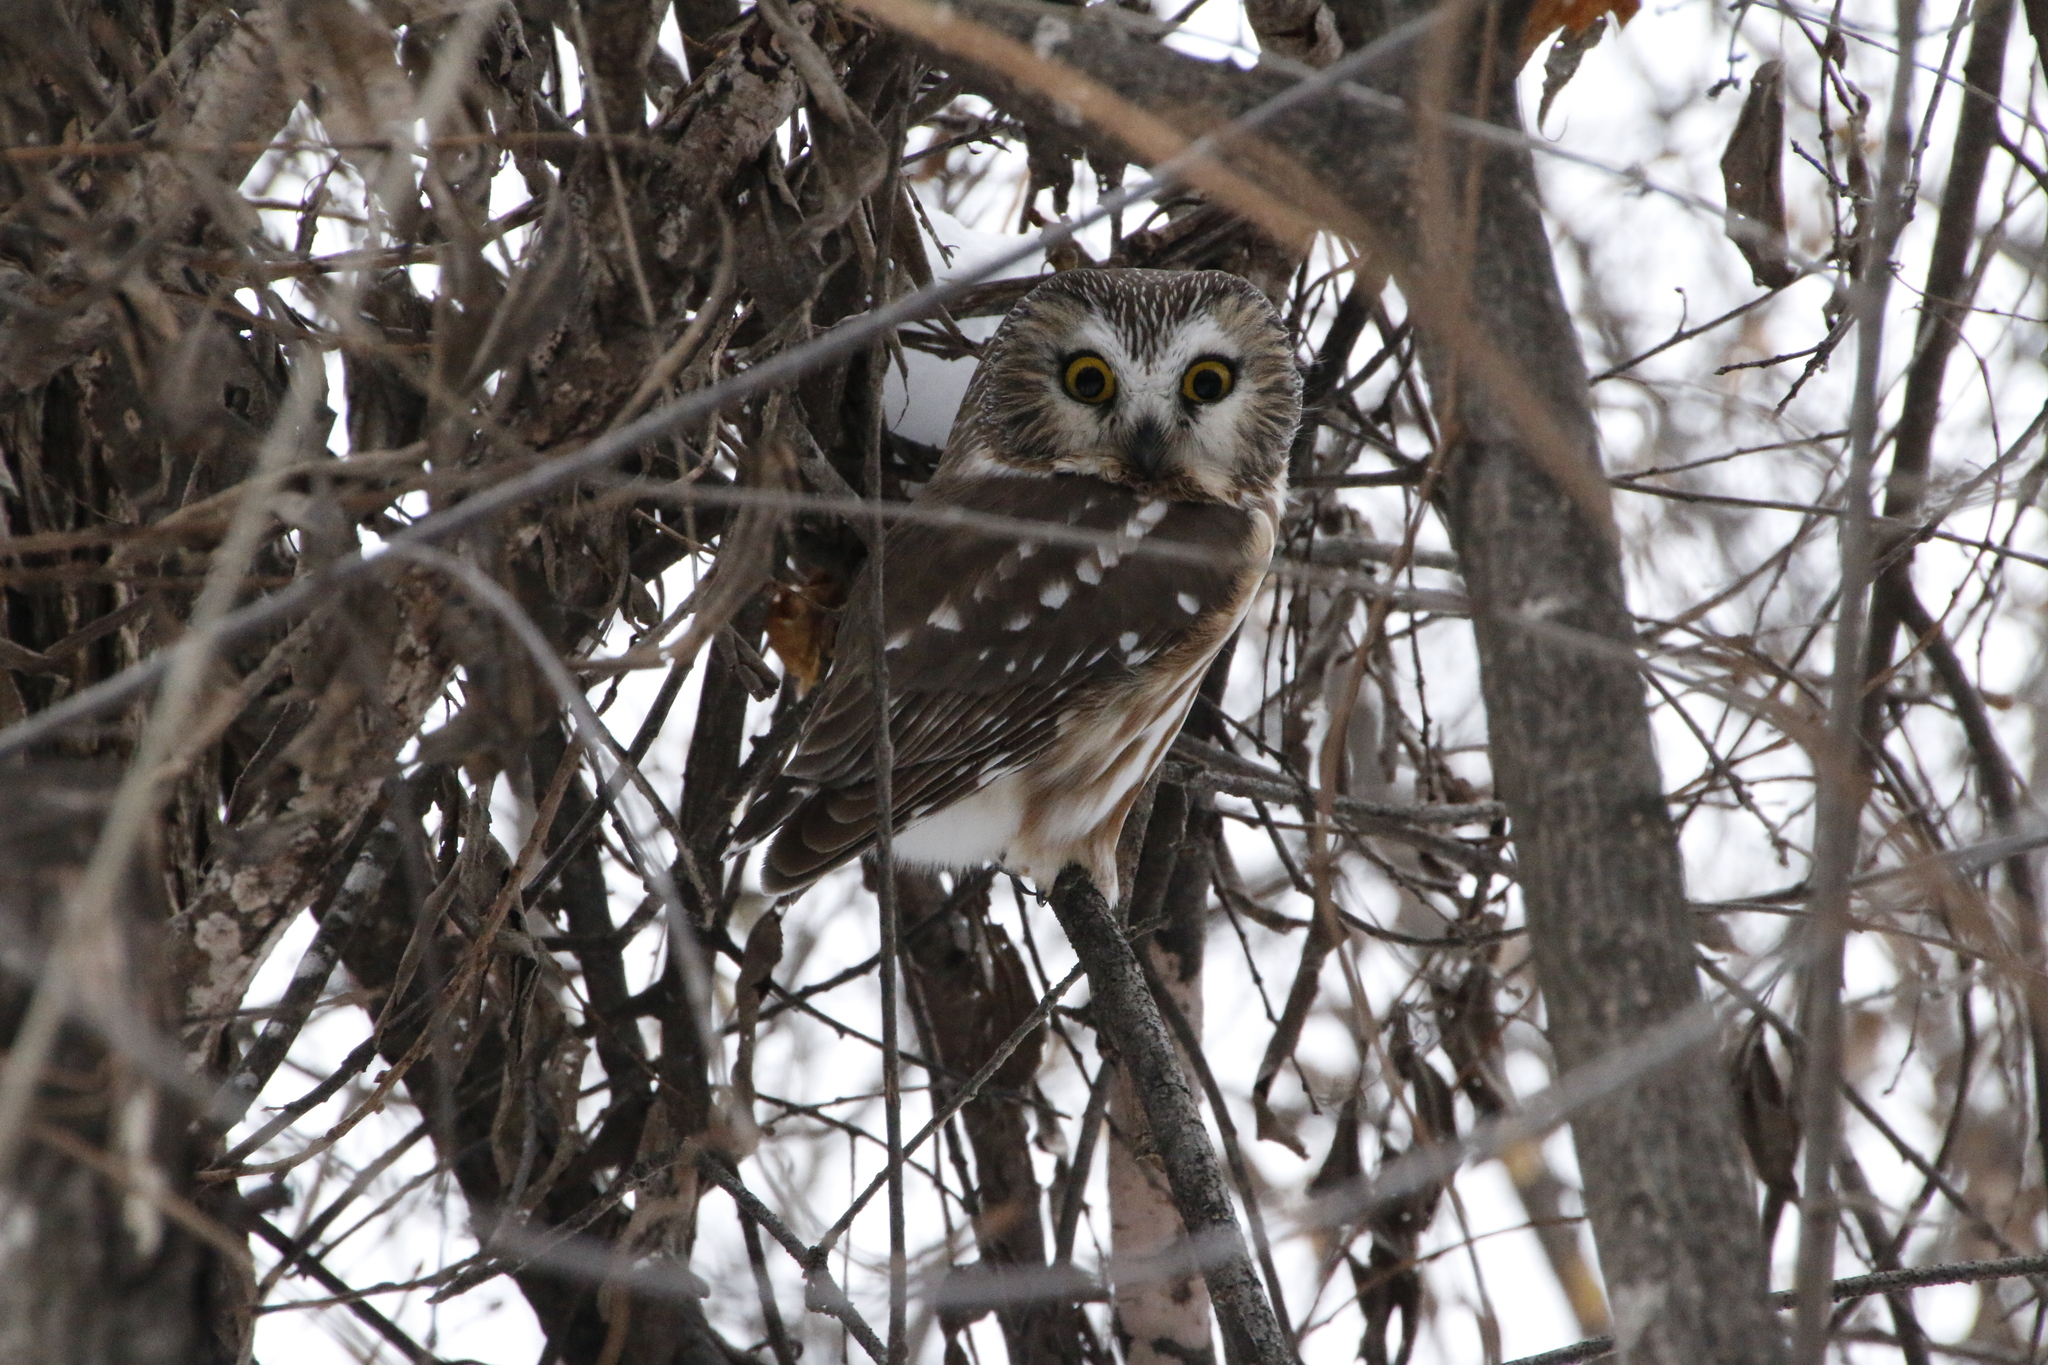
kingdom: Animalia
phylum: Chordata
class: Aves
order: Strigiformes
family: Strigidae
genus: Aegolius
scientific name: Aegolius acadicus
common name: Northern saw-whet owl
